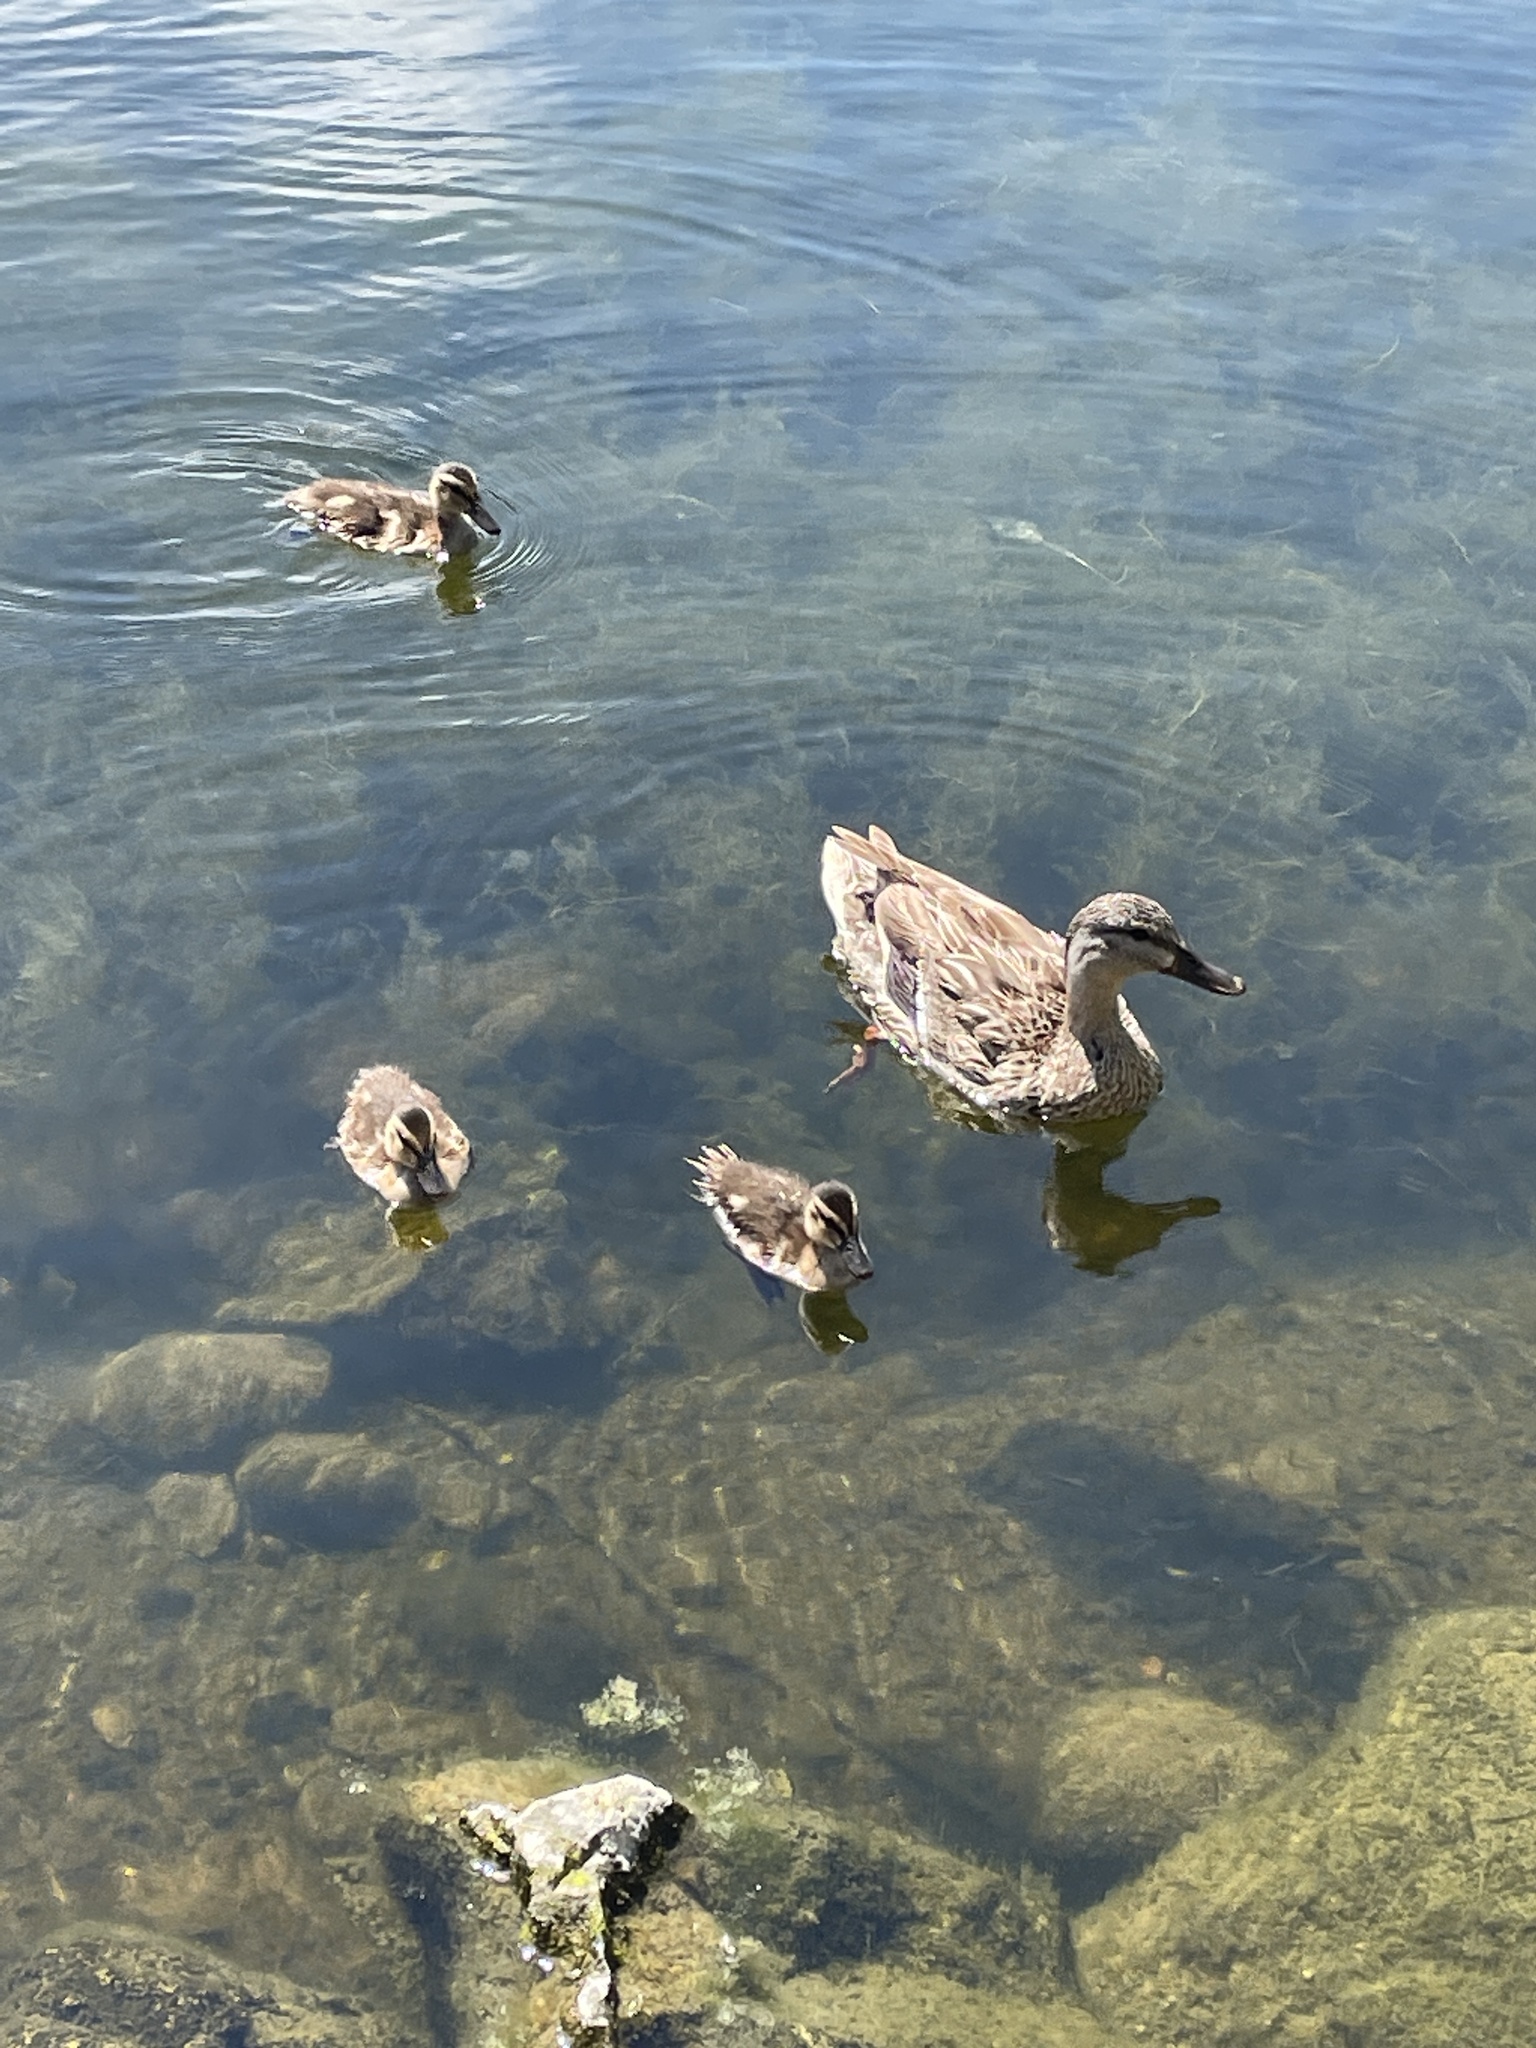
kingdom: Animalia
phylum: Chordata
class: Aves
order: Anseriformes
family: Anatidae
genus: Anas
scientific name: Anas platyrhynchos
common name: Mallard
